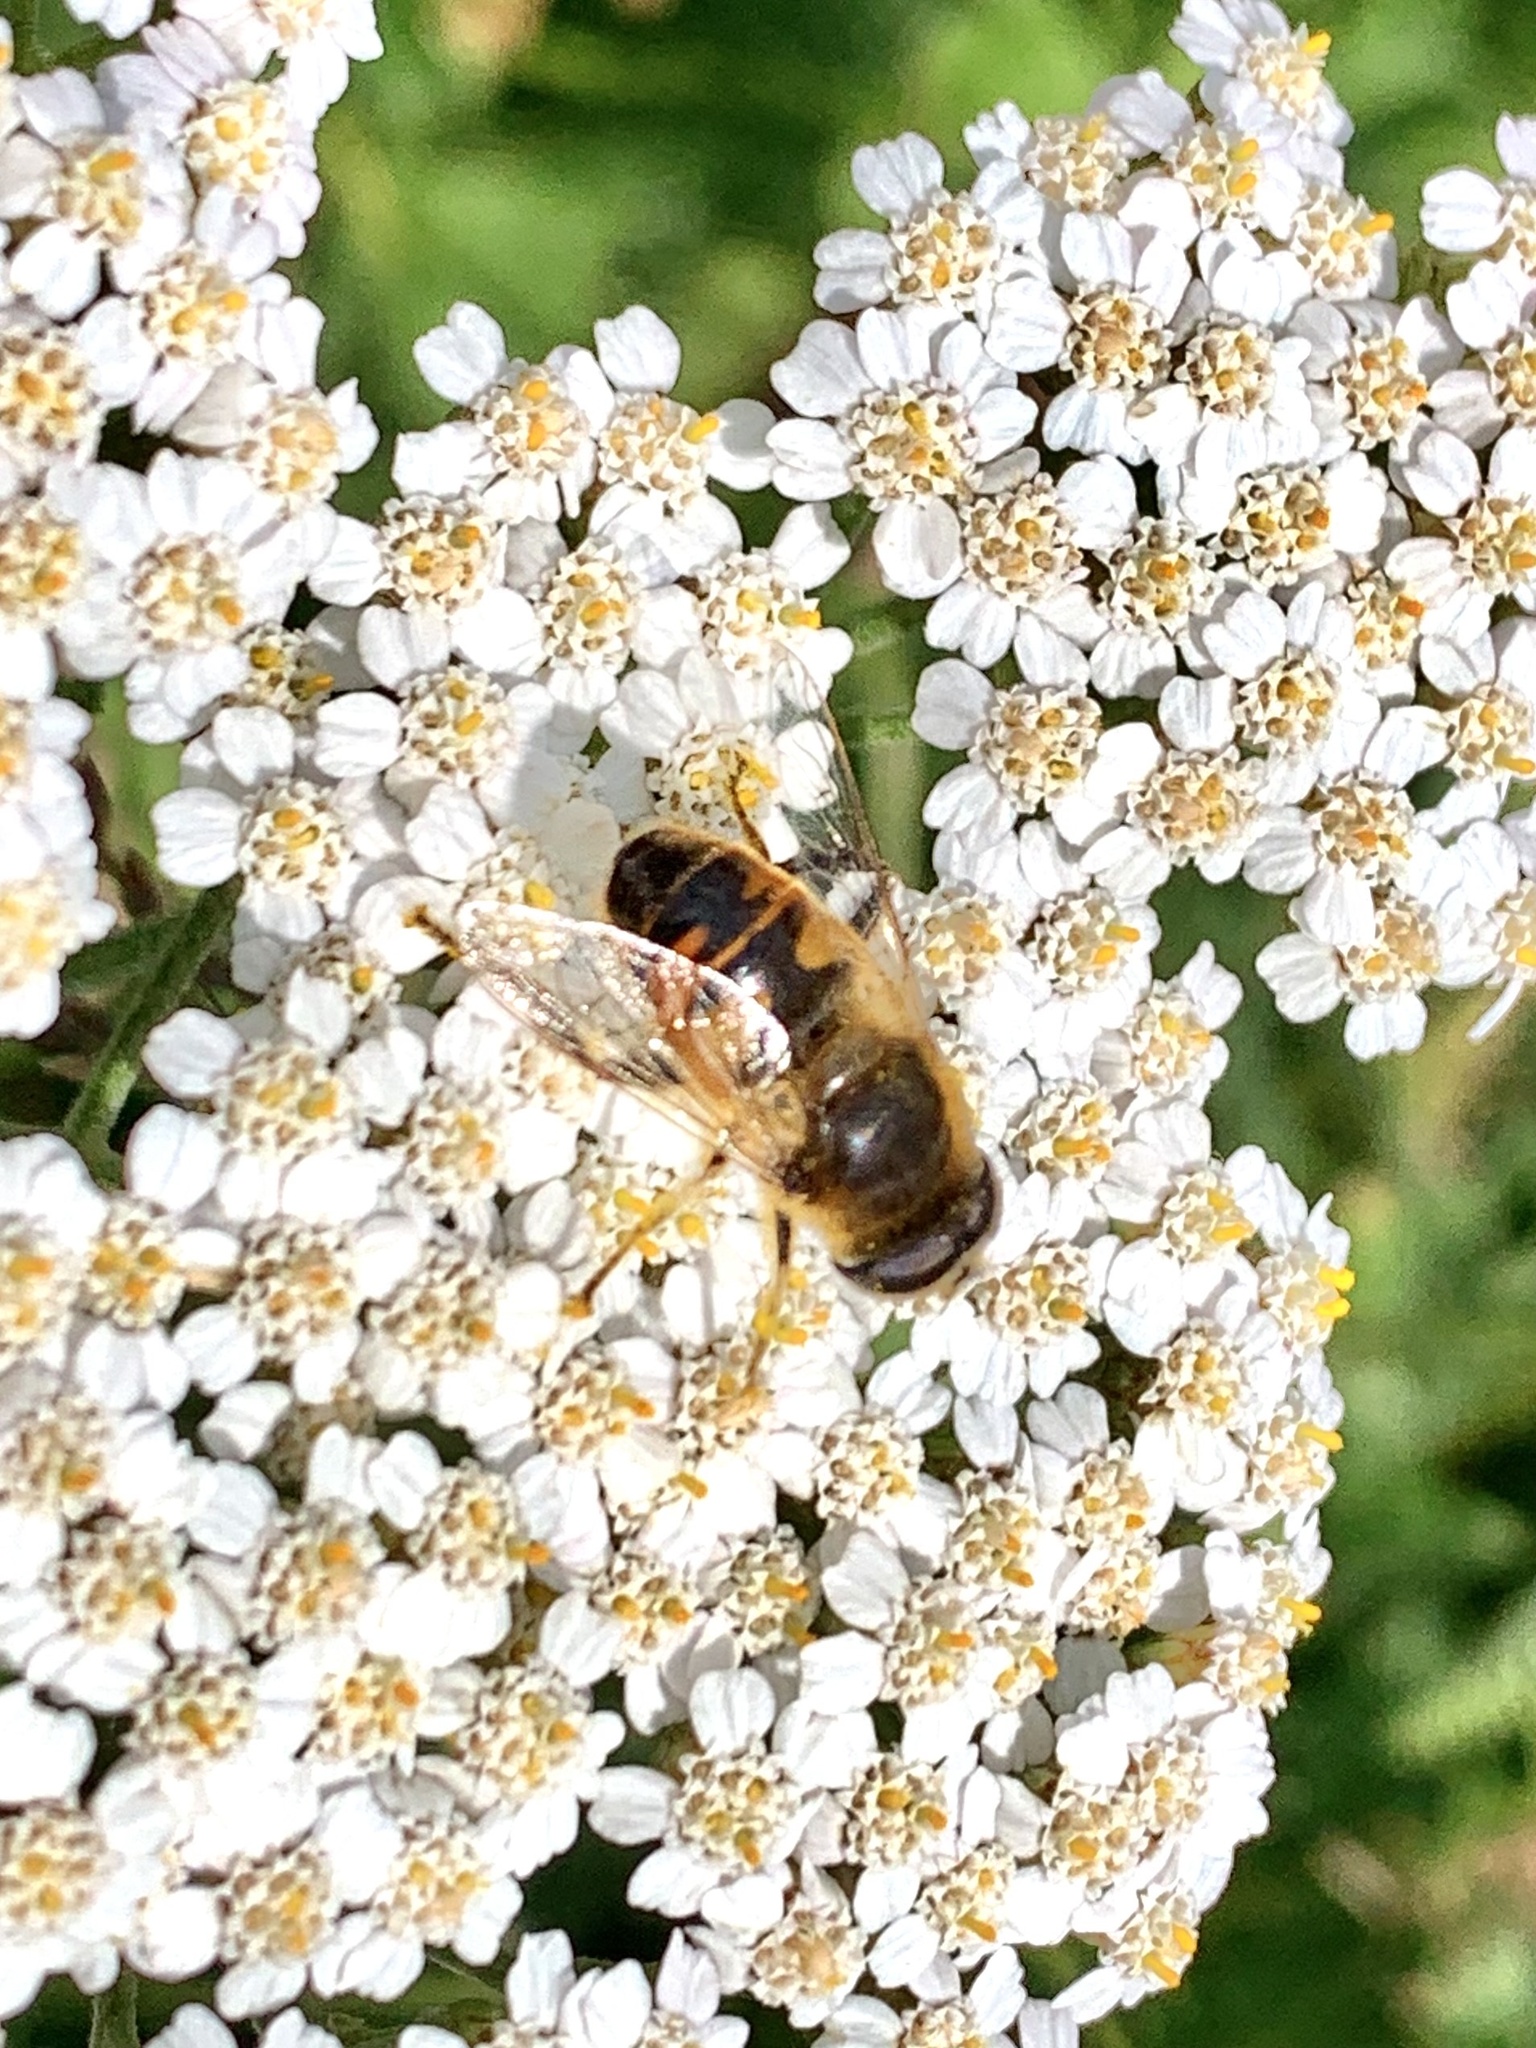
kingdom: Animalia
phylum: Arthropoda
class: Insecta
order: Diptera
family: Syrphidae
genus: Eristalis
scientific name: Eristalis tenax
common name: Drone fly
